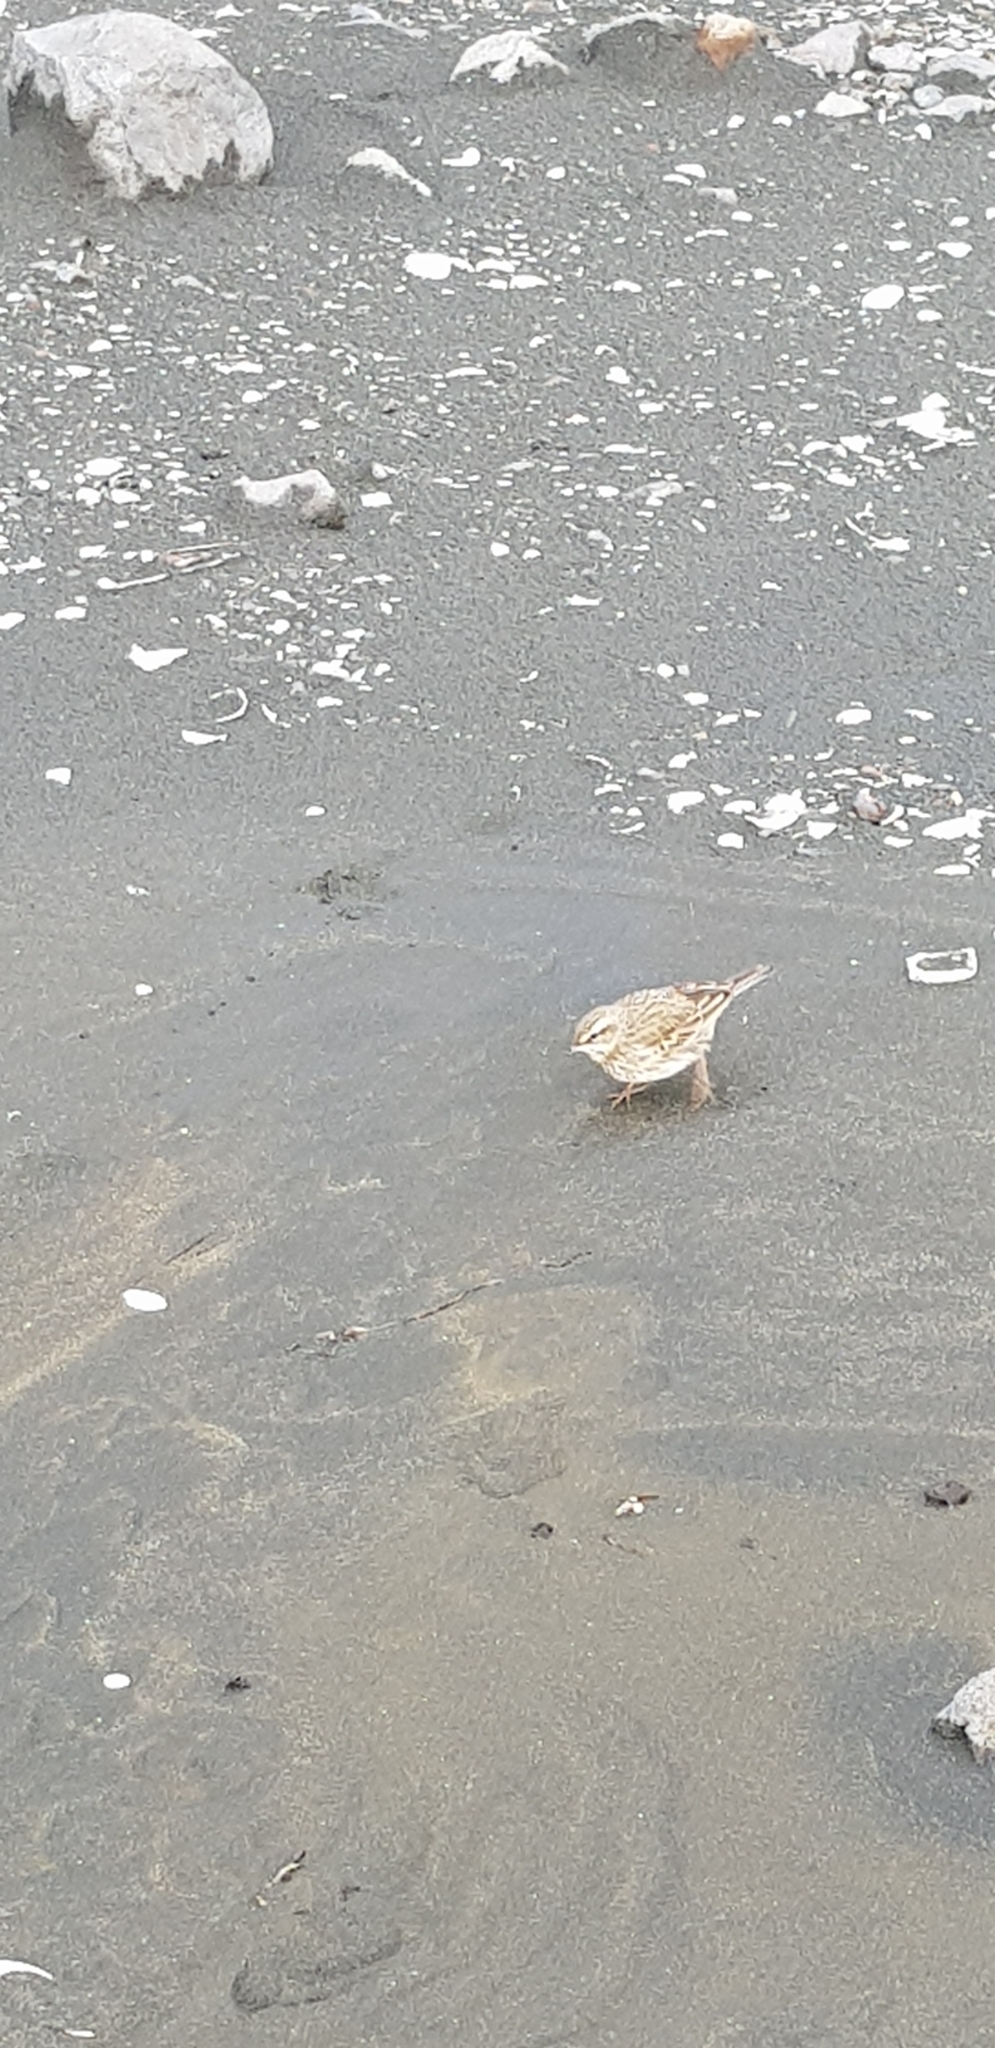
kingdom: Animalia
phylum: Chordata
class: Aves
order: Passeriformes
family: Motacillidae
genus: Anthus
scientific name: Anthus novaeseelandiae
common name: New zealand pipit
